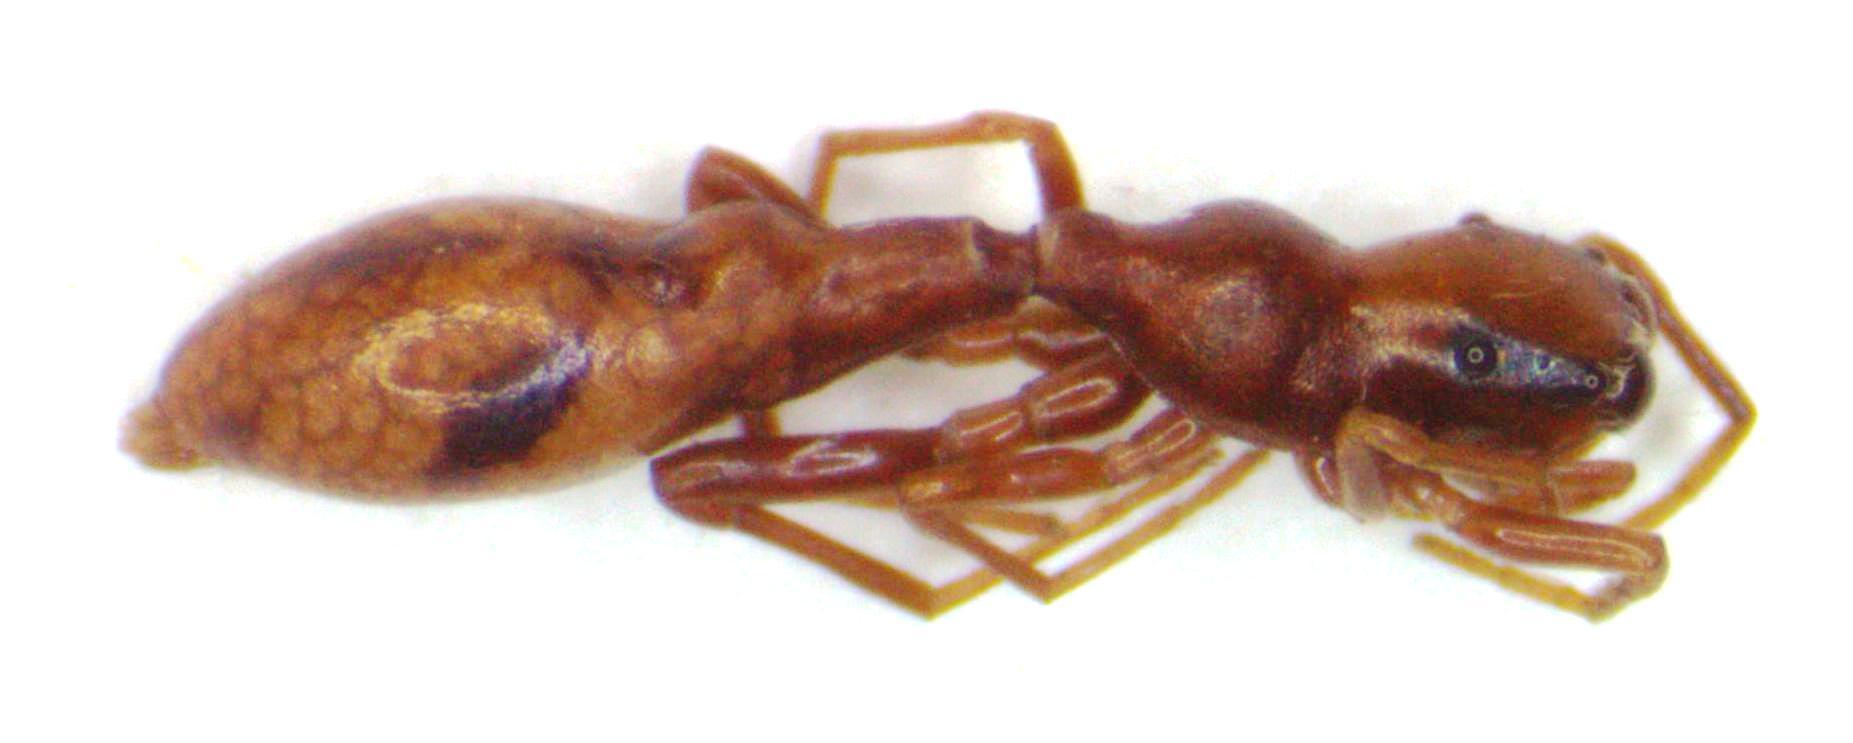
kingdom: Animalia
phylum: Arthropoda
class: Arachnida
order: Araneae
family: Salticidae
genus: Synemosyna
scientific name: Synemosyna nicaraguaensis
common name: Jumping spiders
